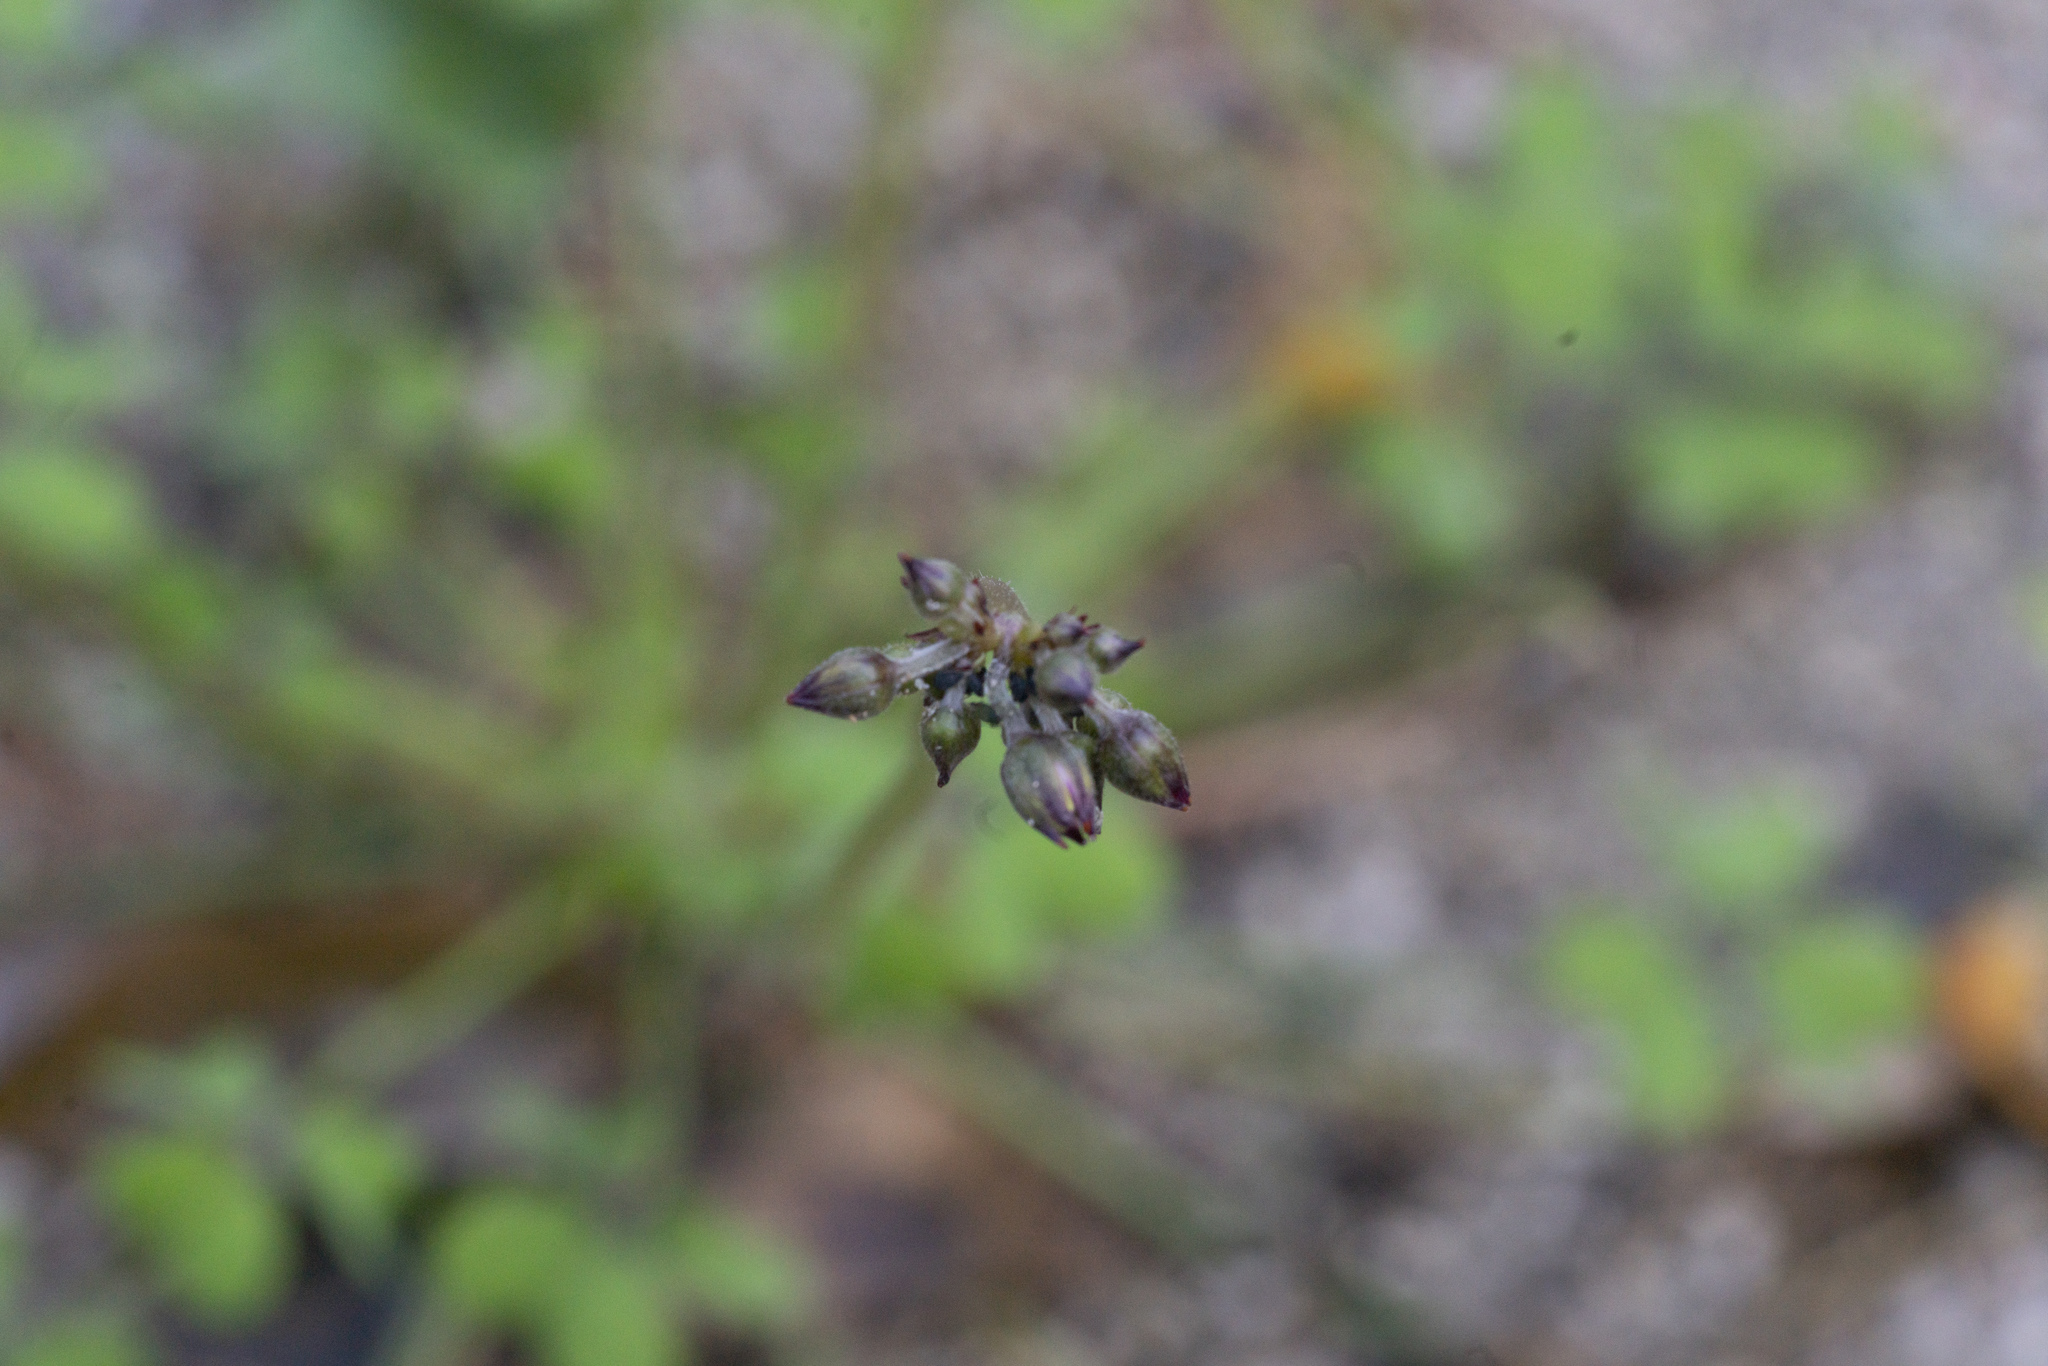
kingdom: Plantae
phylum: Tracheophyta
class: Magnoliopsida
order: Oxalidales
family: Oxalidaceae
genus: Oxalis
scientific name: Oxalis pes-caprae
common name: Bermuda-buttercup
